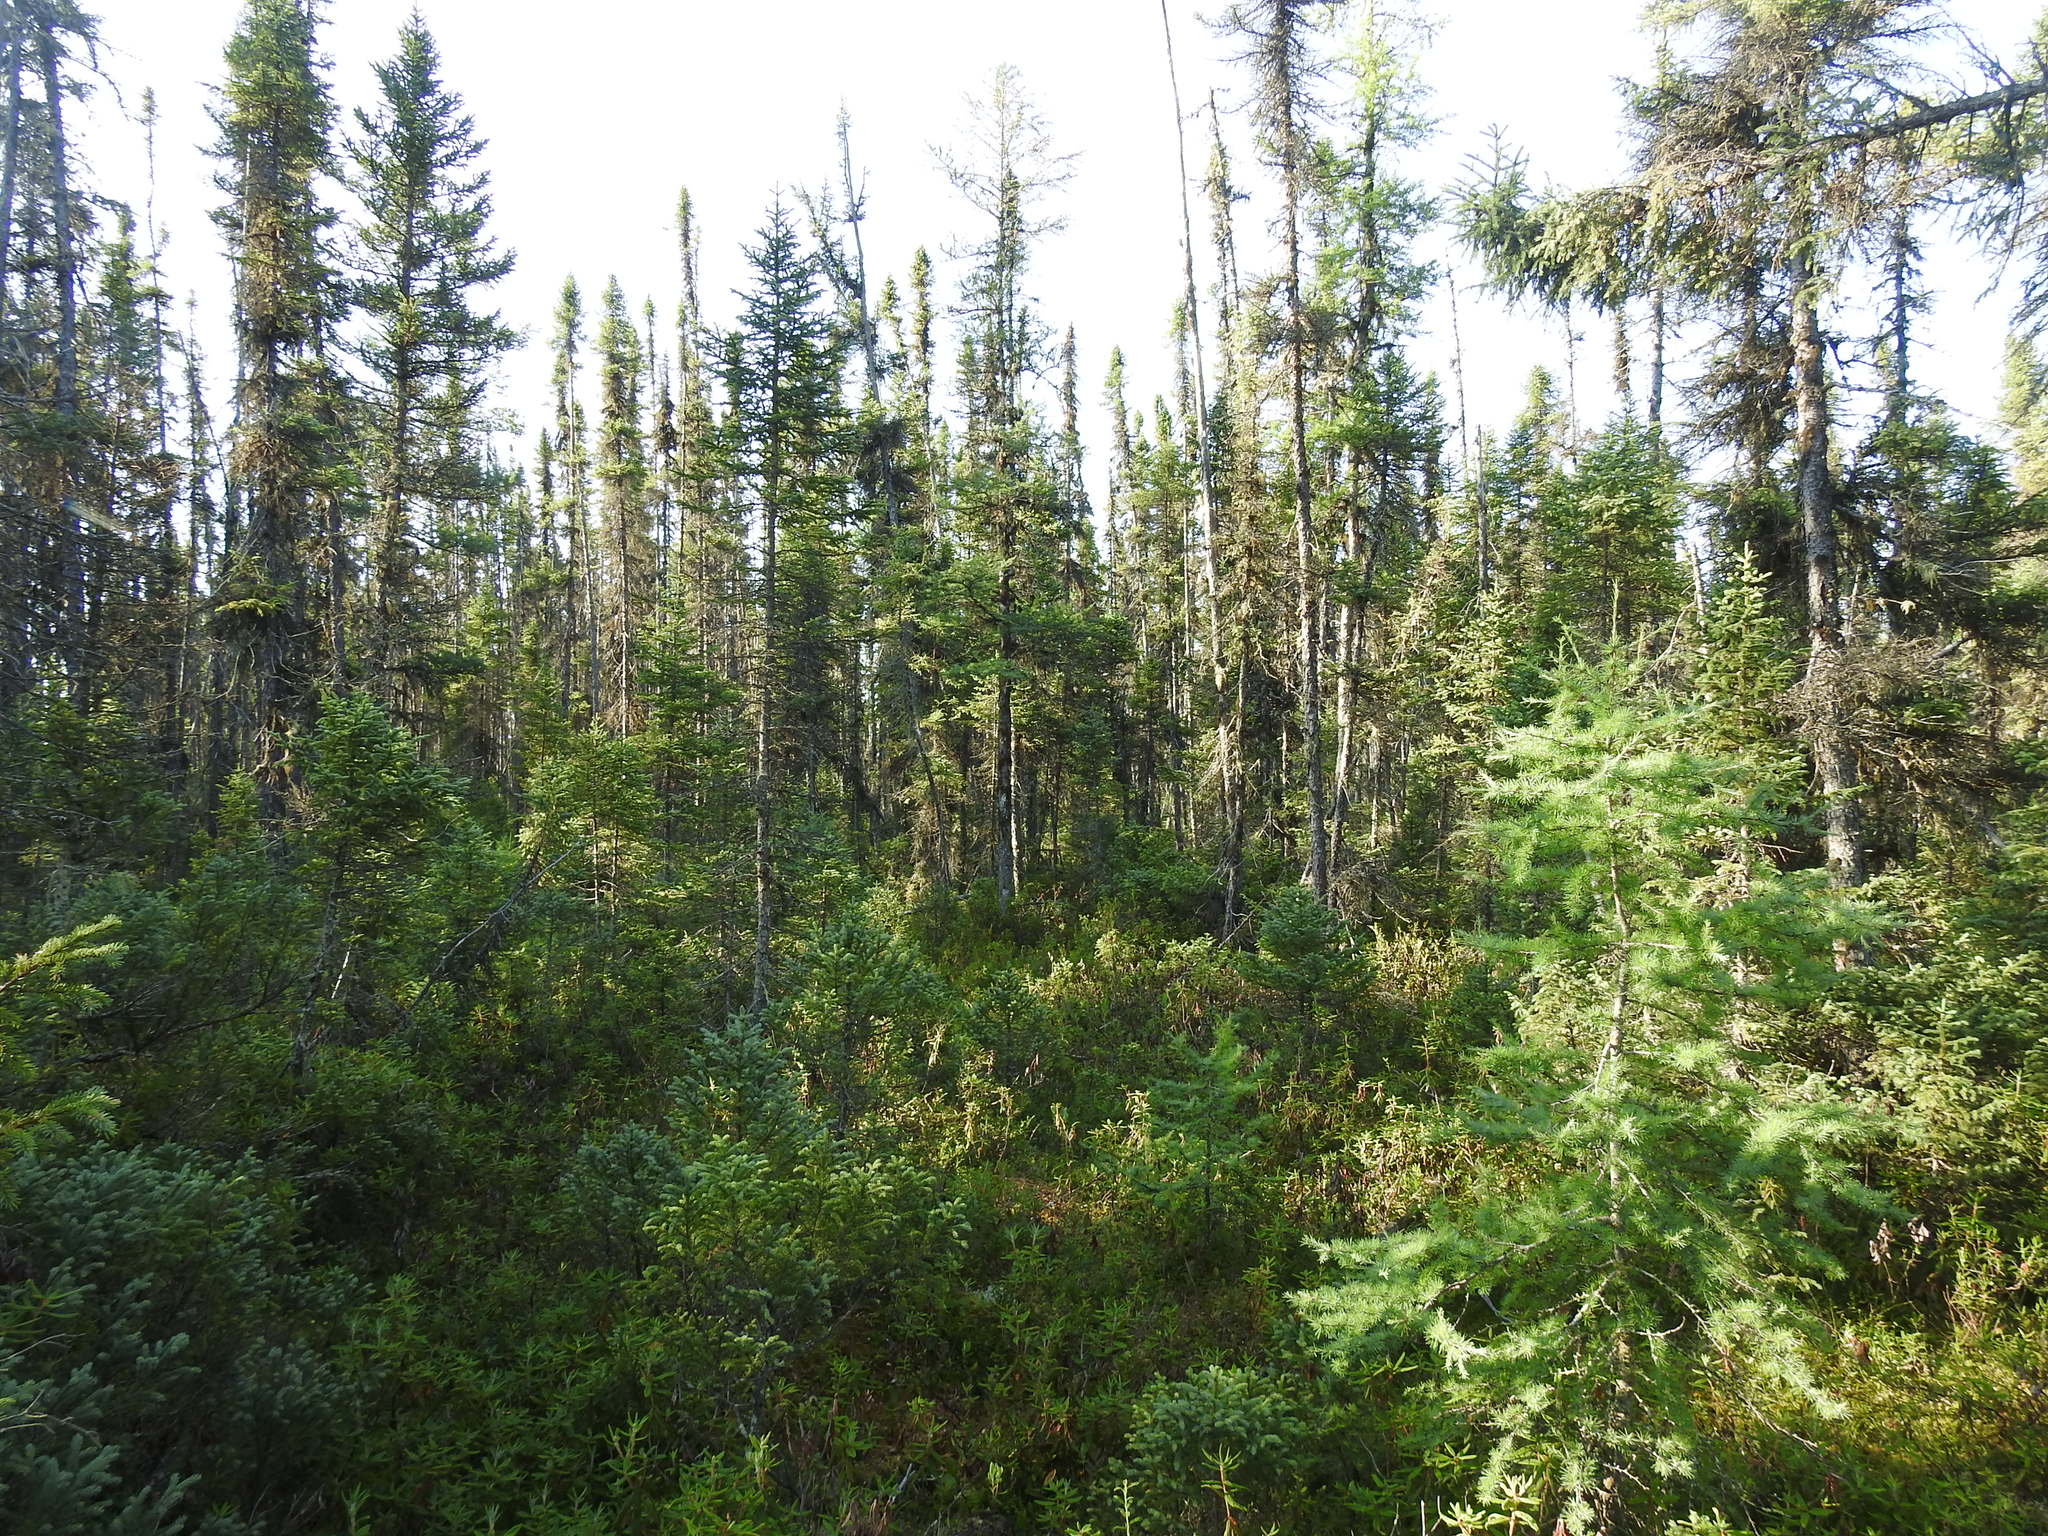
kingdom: Plantae
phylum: Tracheophyta
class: Pinopsida
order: Pinales
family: Pinaceae
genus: Picea
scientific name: Picea mariana
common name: Black spruce
